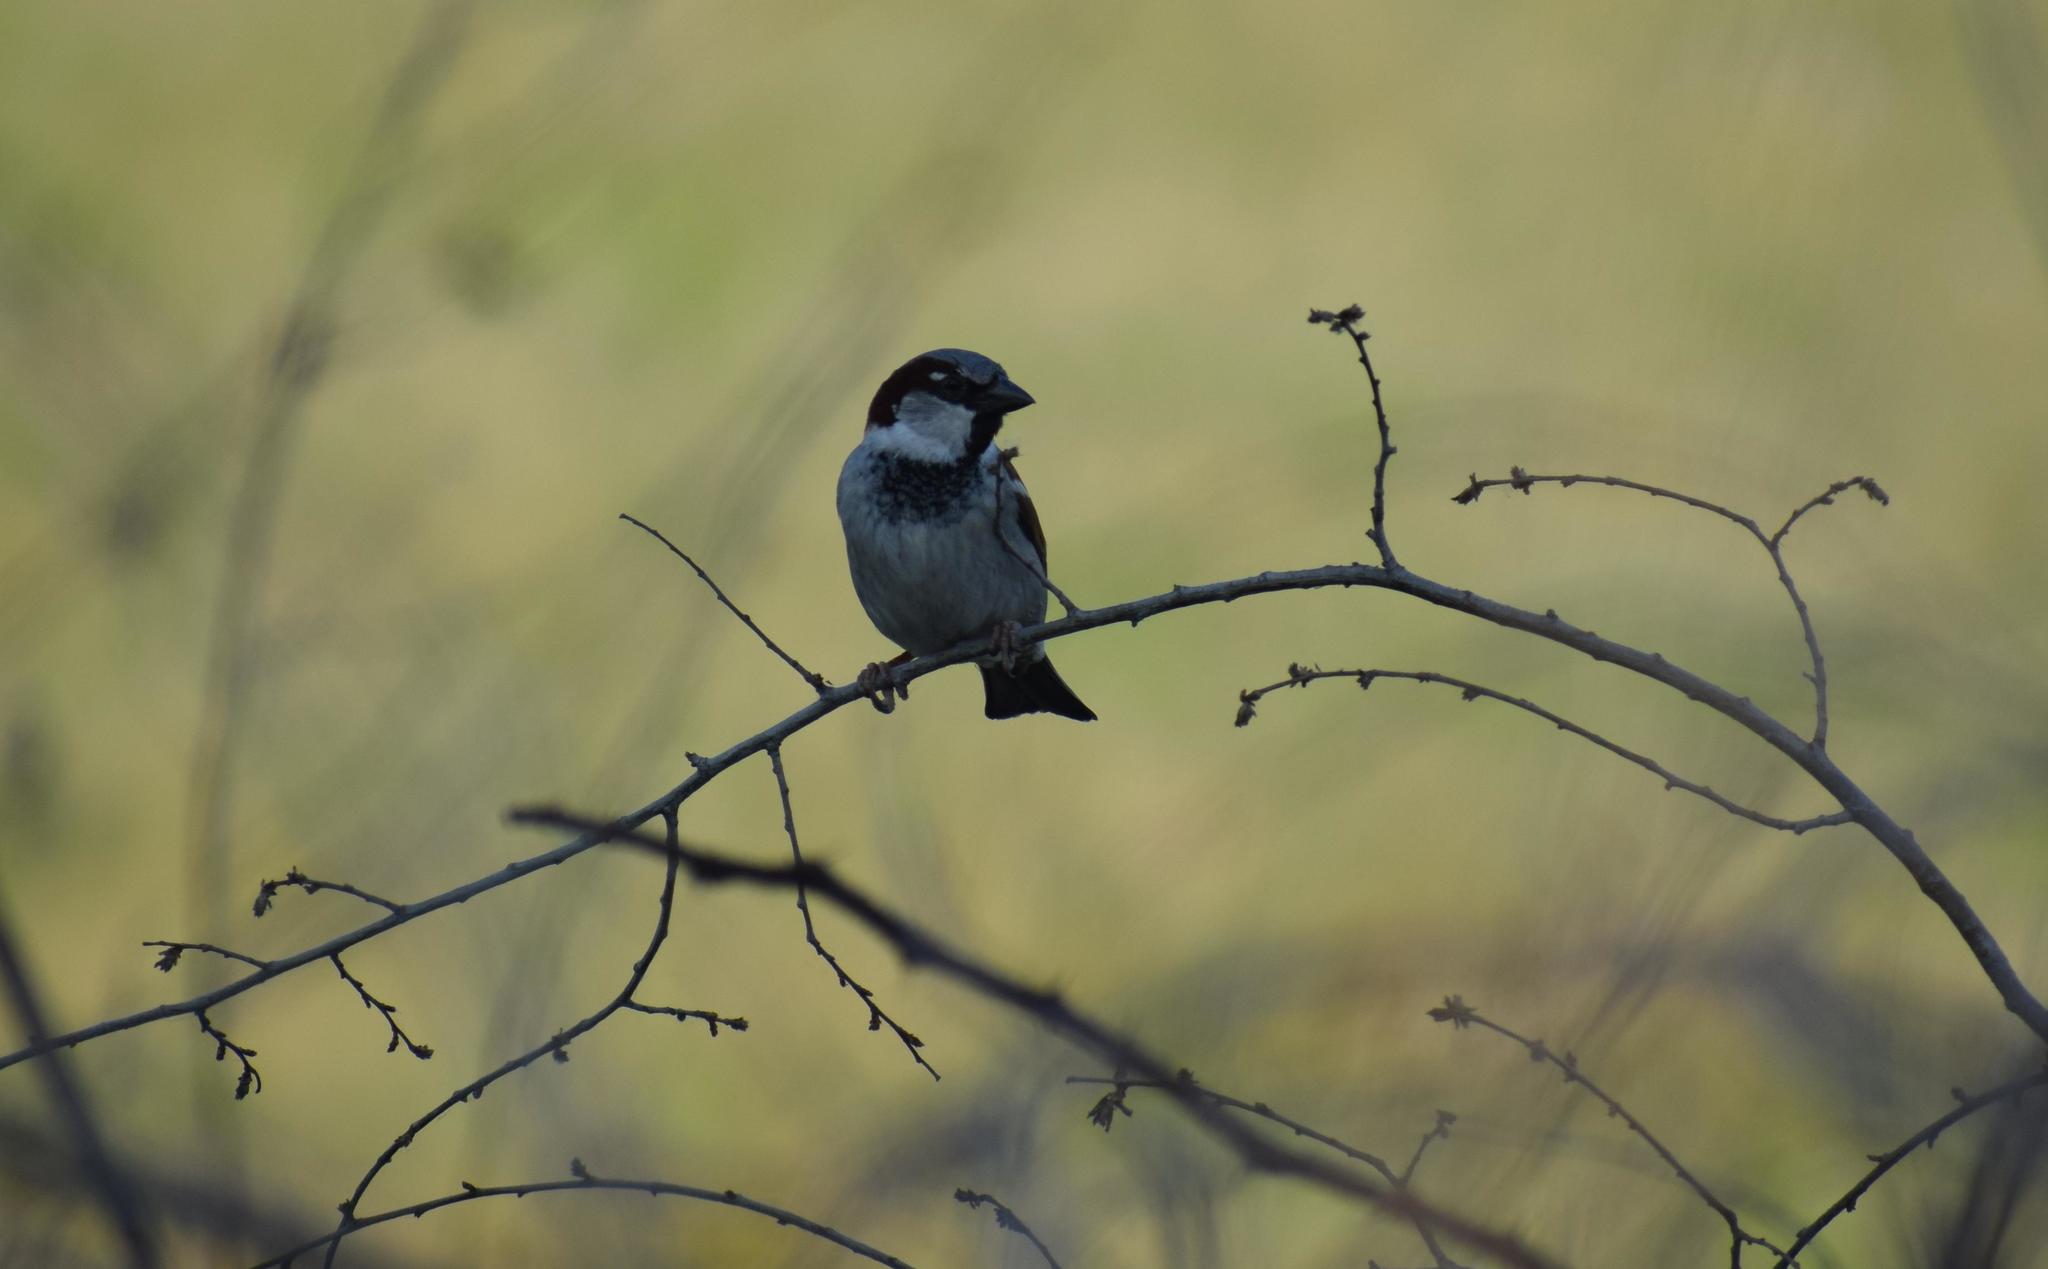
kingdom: Animalia
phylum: Chordata
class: Aves
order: Passeriformes
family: Passeridae
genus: Passer
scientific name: Passer domesticus
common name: House sparrow
